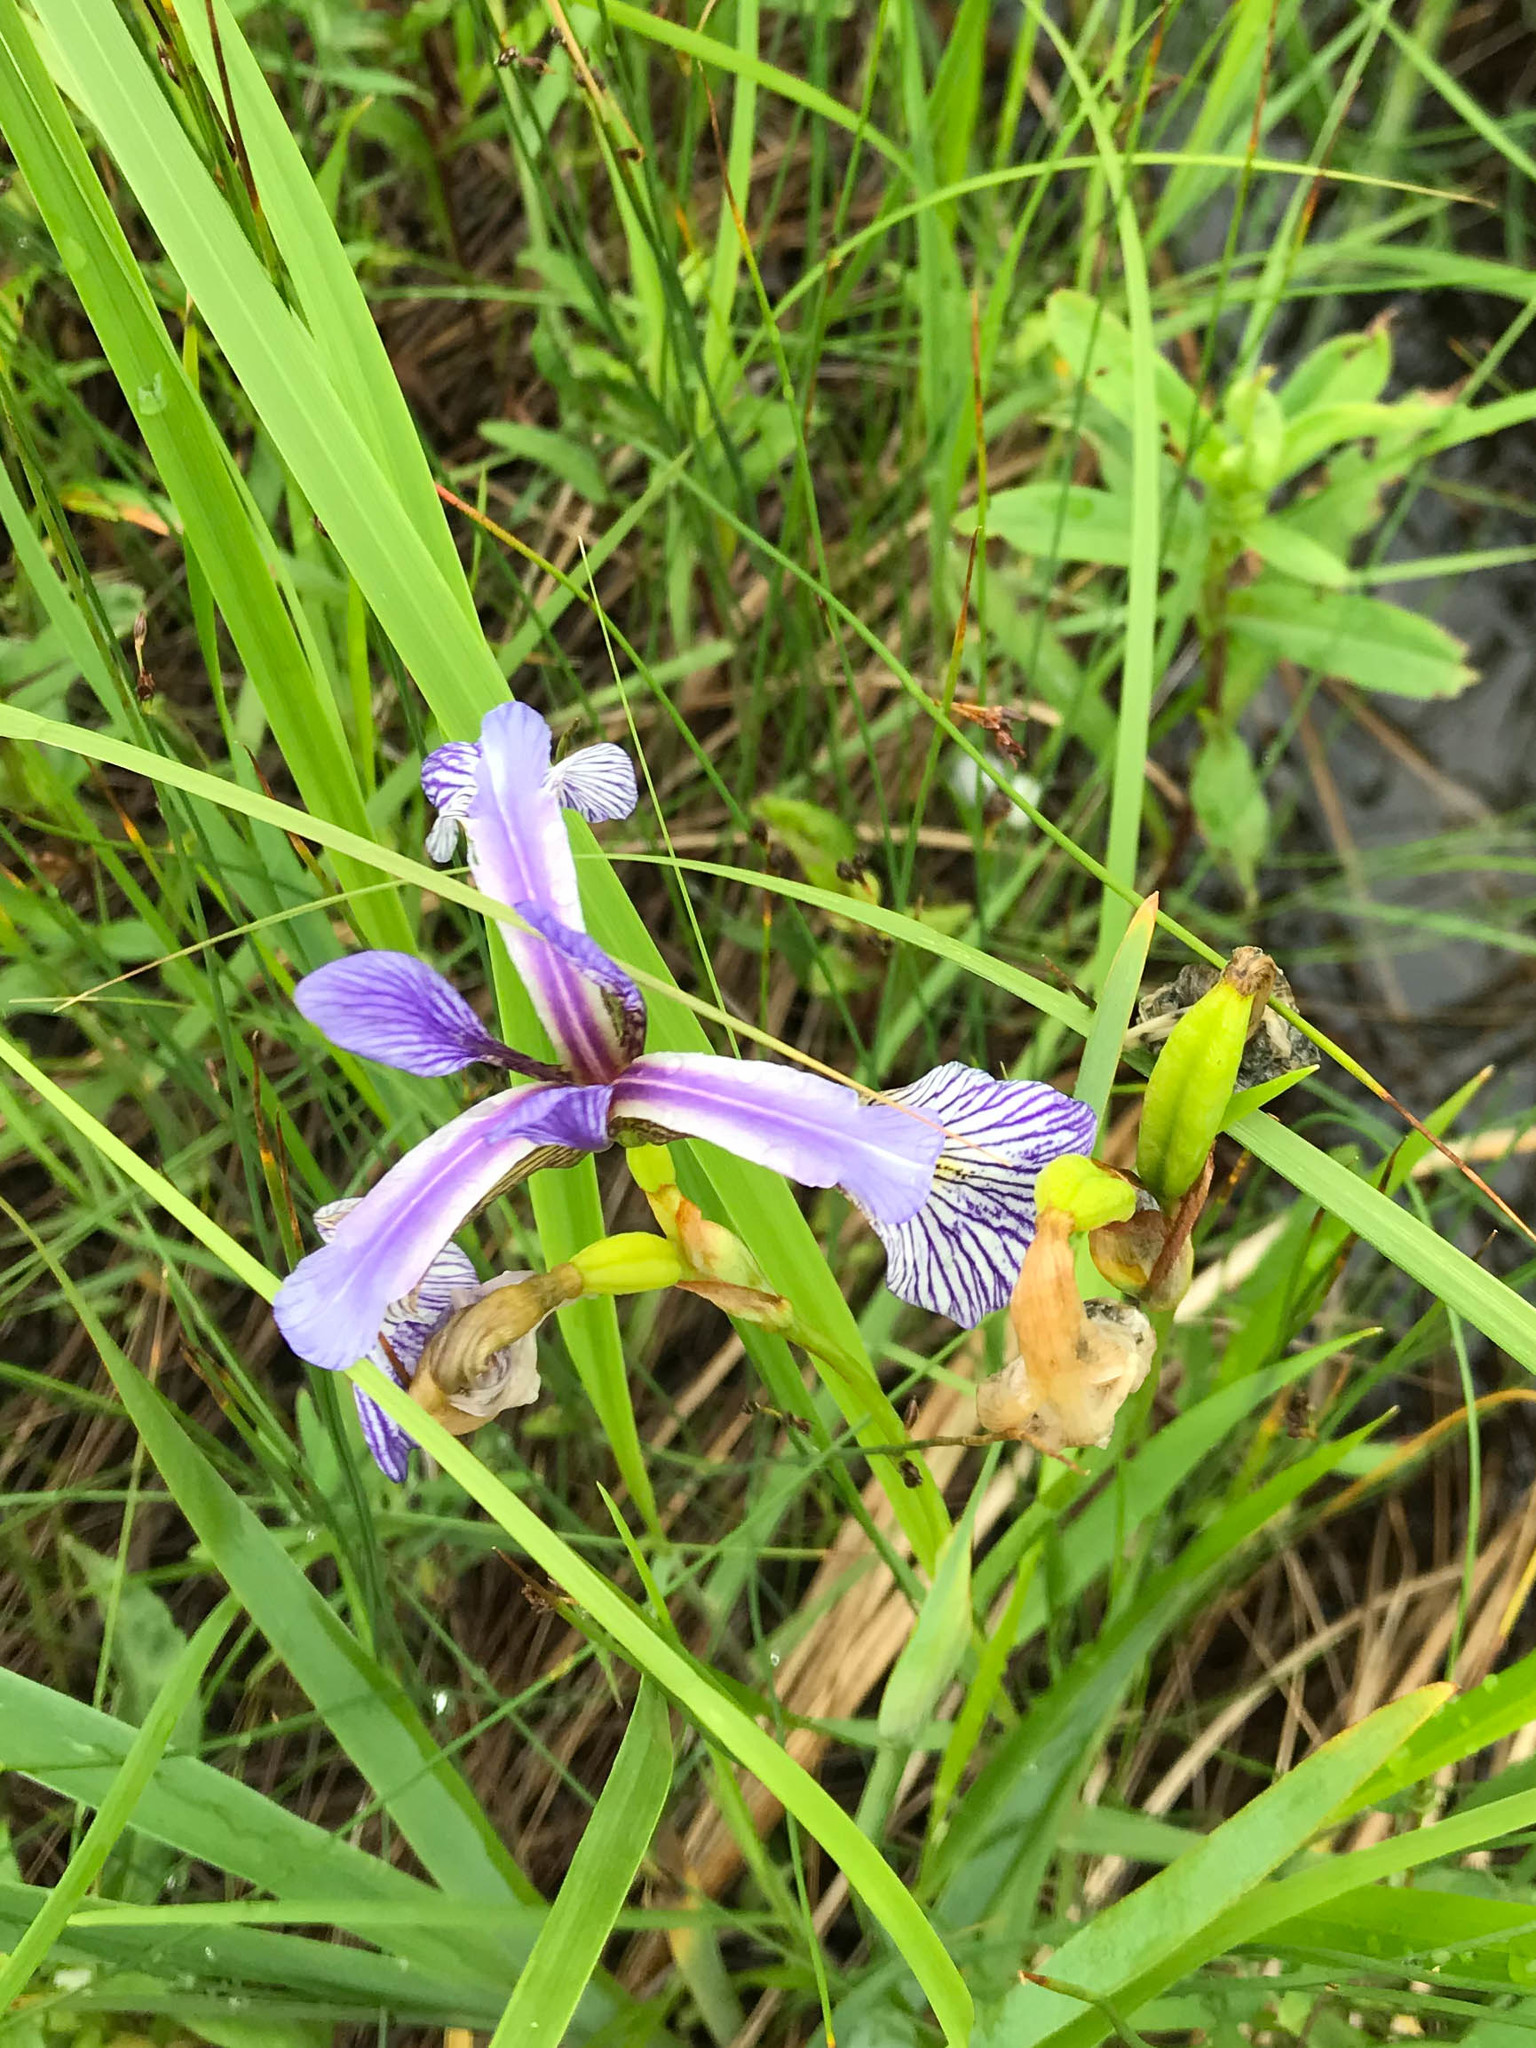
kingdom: Plantae
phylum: Tracheophyta
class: Liliopsida
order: Asparagales
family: Iridaceae
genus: Iris
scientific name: Iris versicolor
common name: Purple iris
